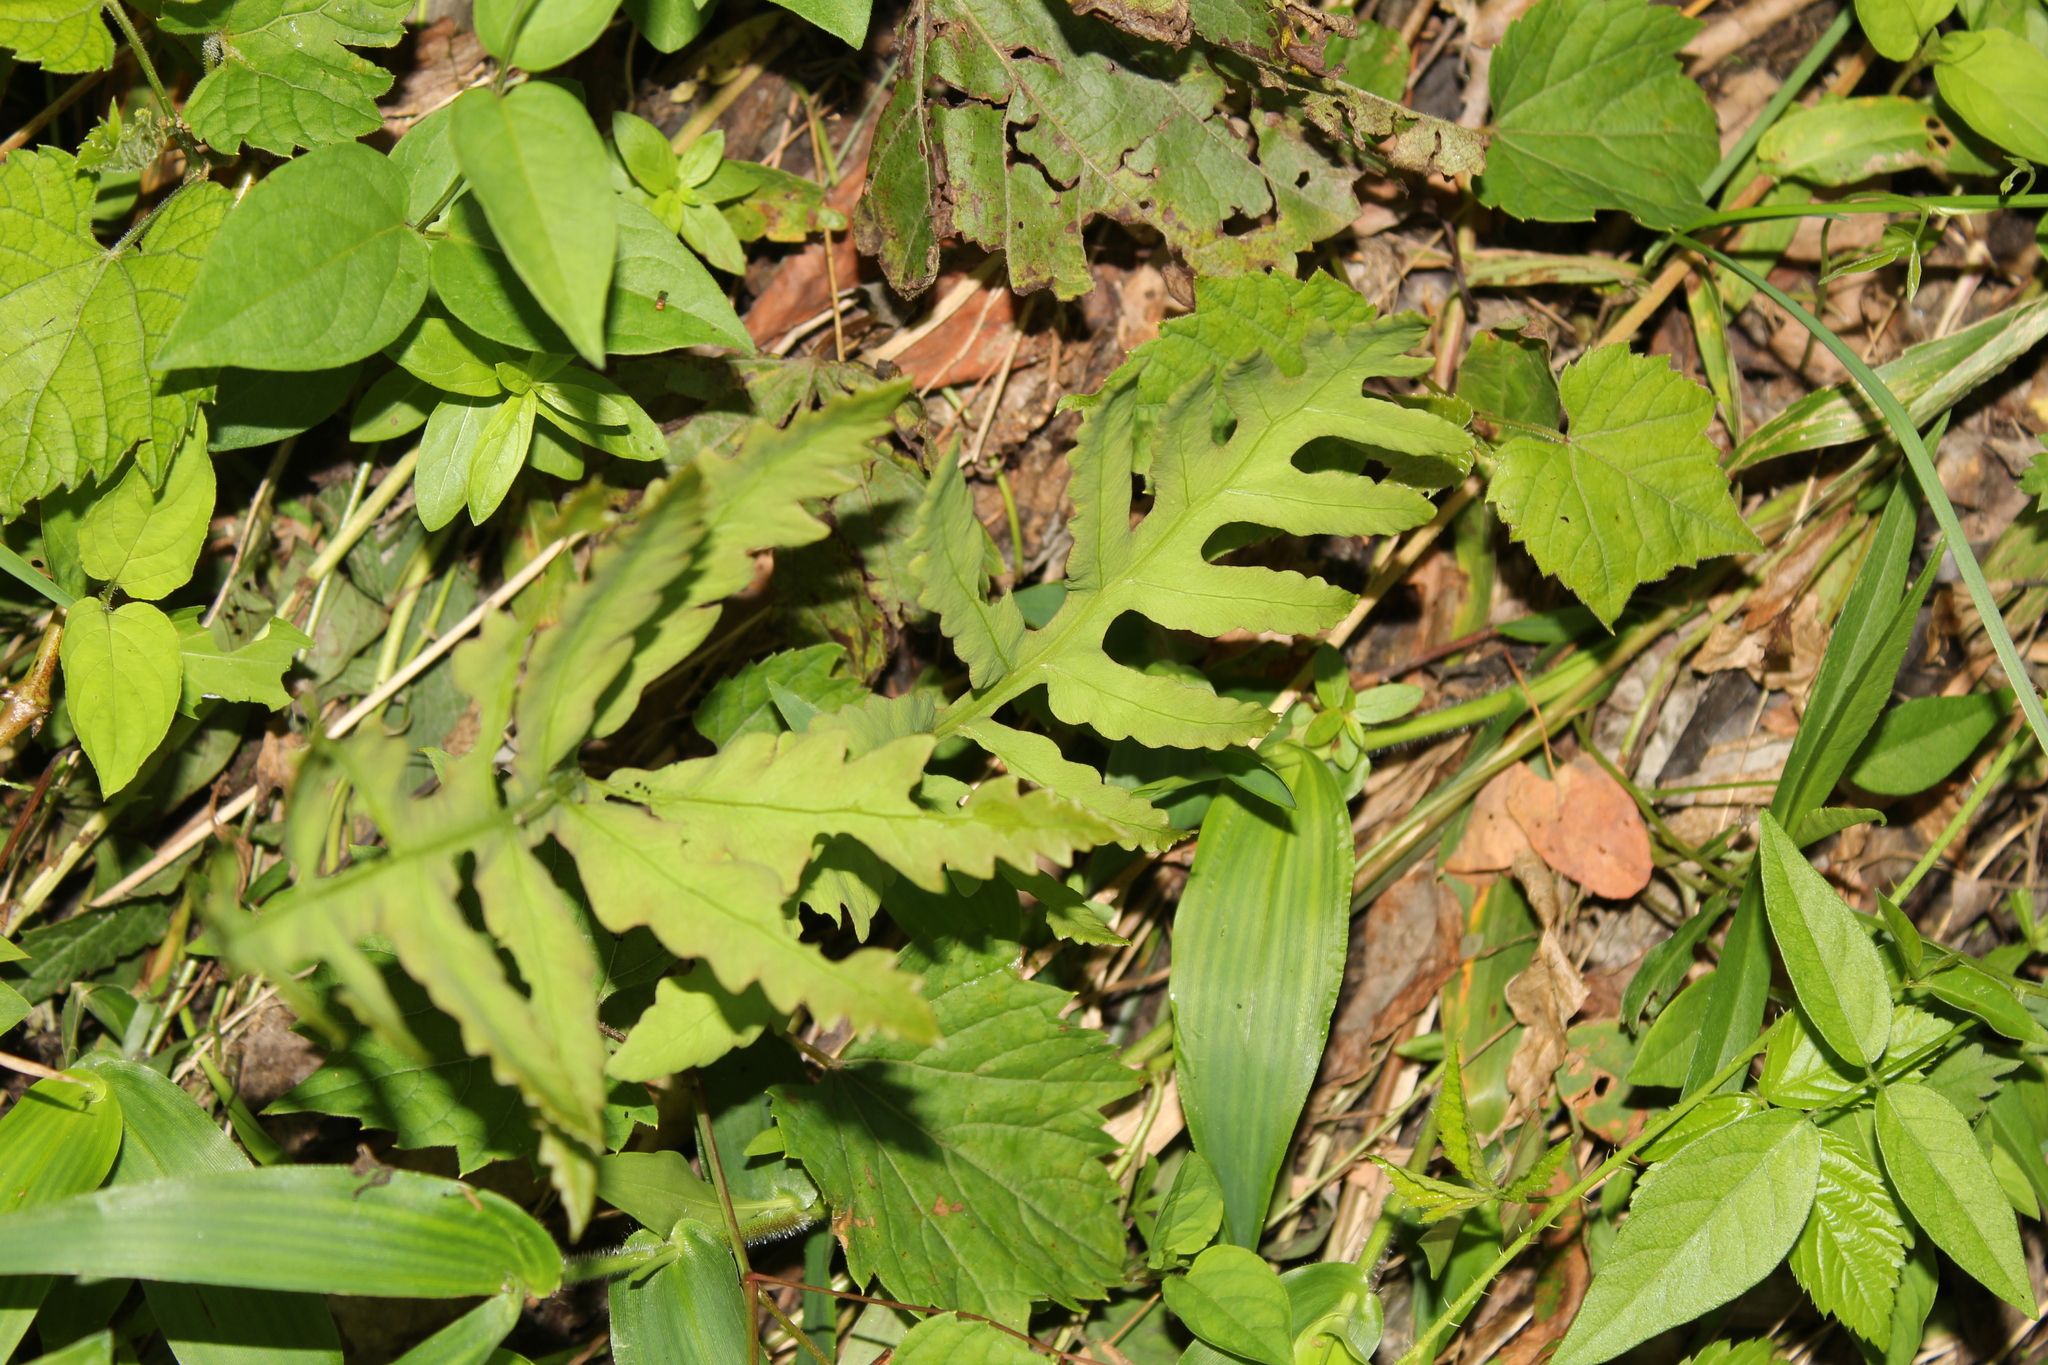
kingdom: Plantae
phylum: Tracheophyta
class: Polypodiopsida
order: Polypodiales
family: Onocleaceae
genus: Onoclea
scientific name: Onoclea sensibilis
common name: Sensitive fern
